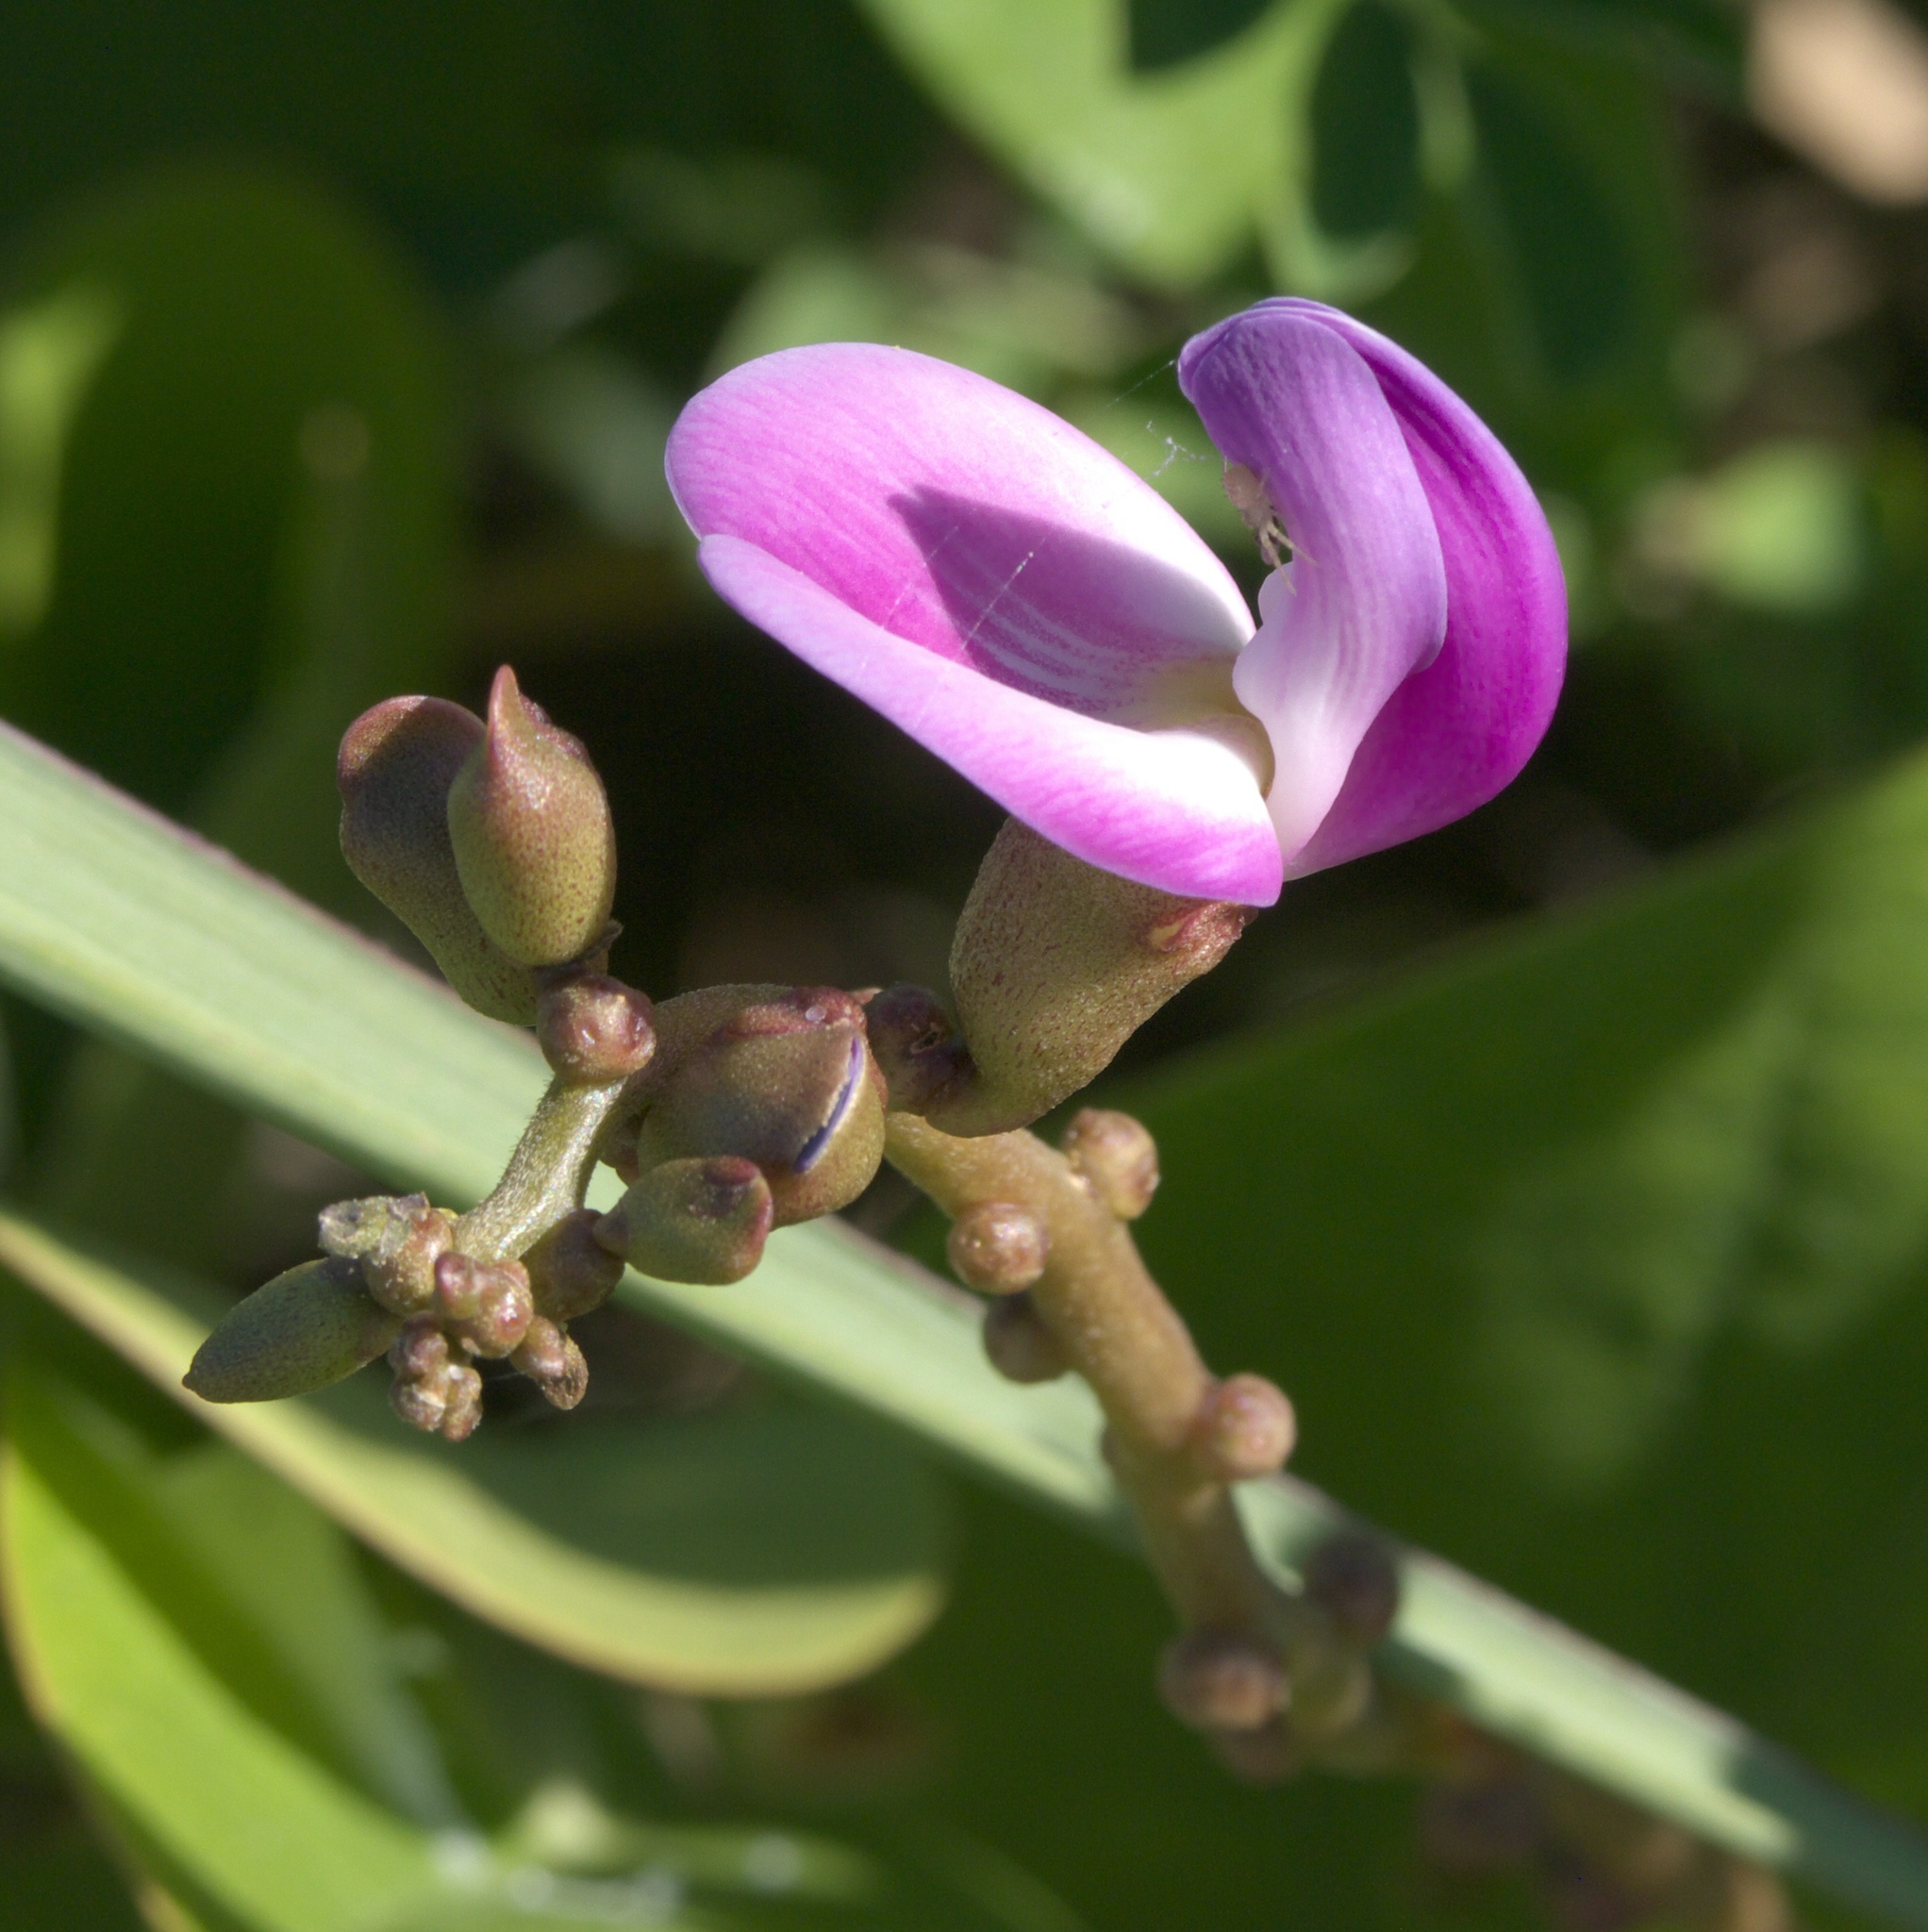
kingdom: Plantae
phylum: Tracheophyta
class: Magnoliopsida
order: Fabales
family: Fabaceae
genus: Canavalia
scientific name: Canavalia rosea
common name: Beach-bean
